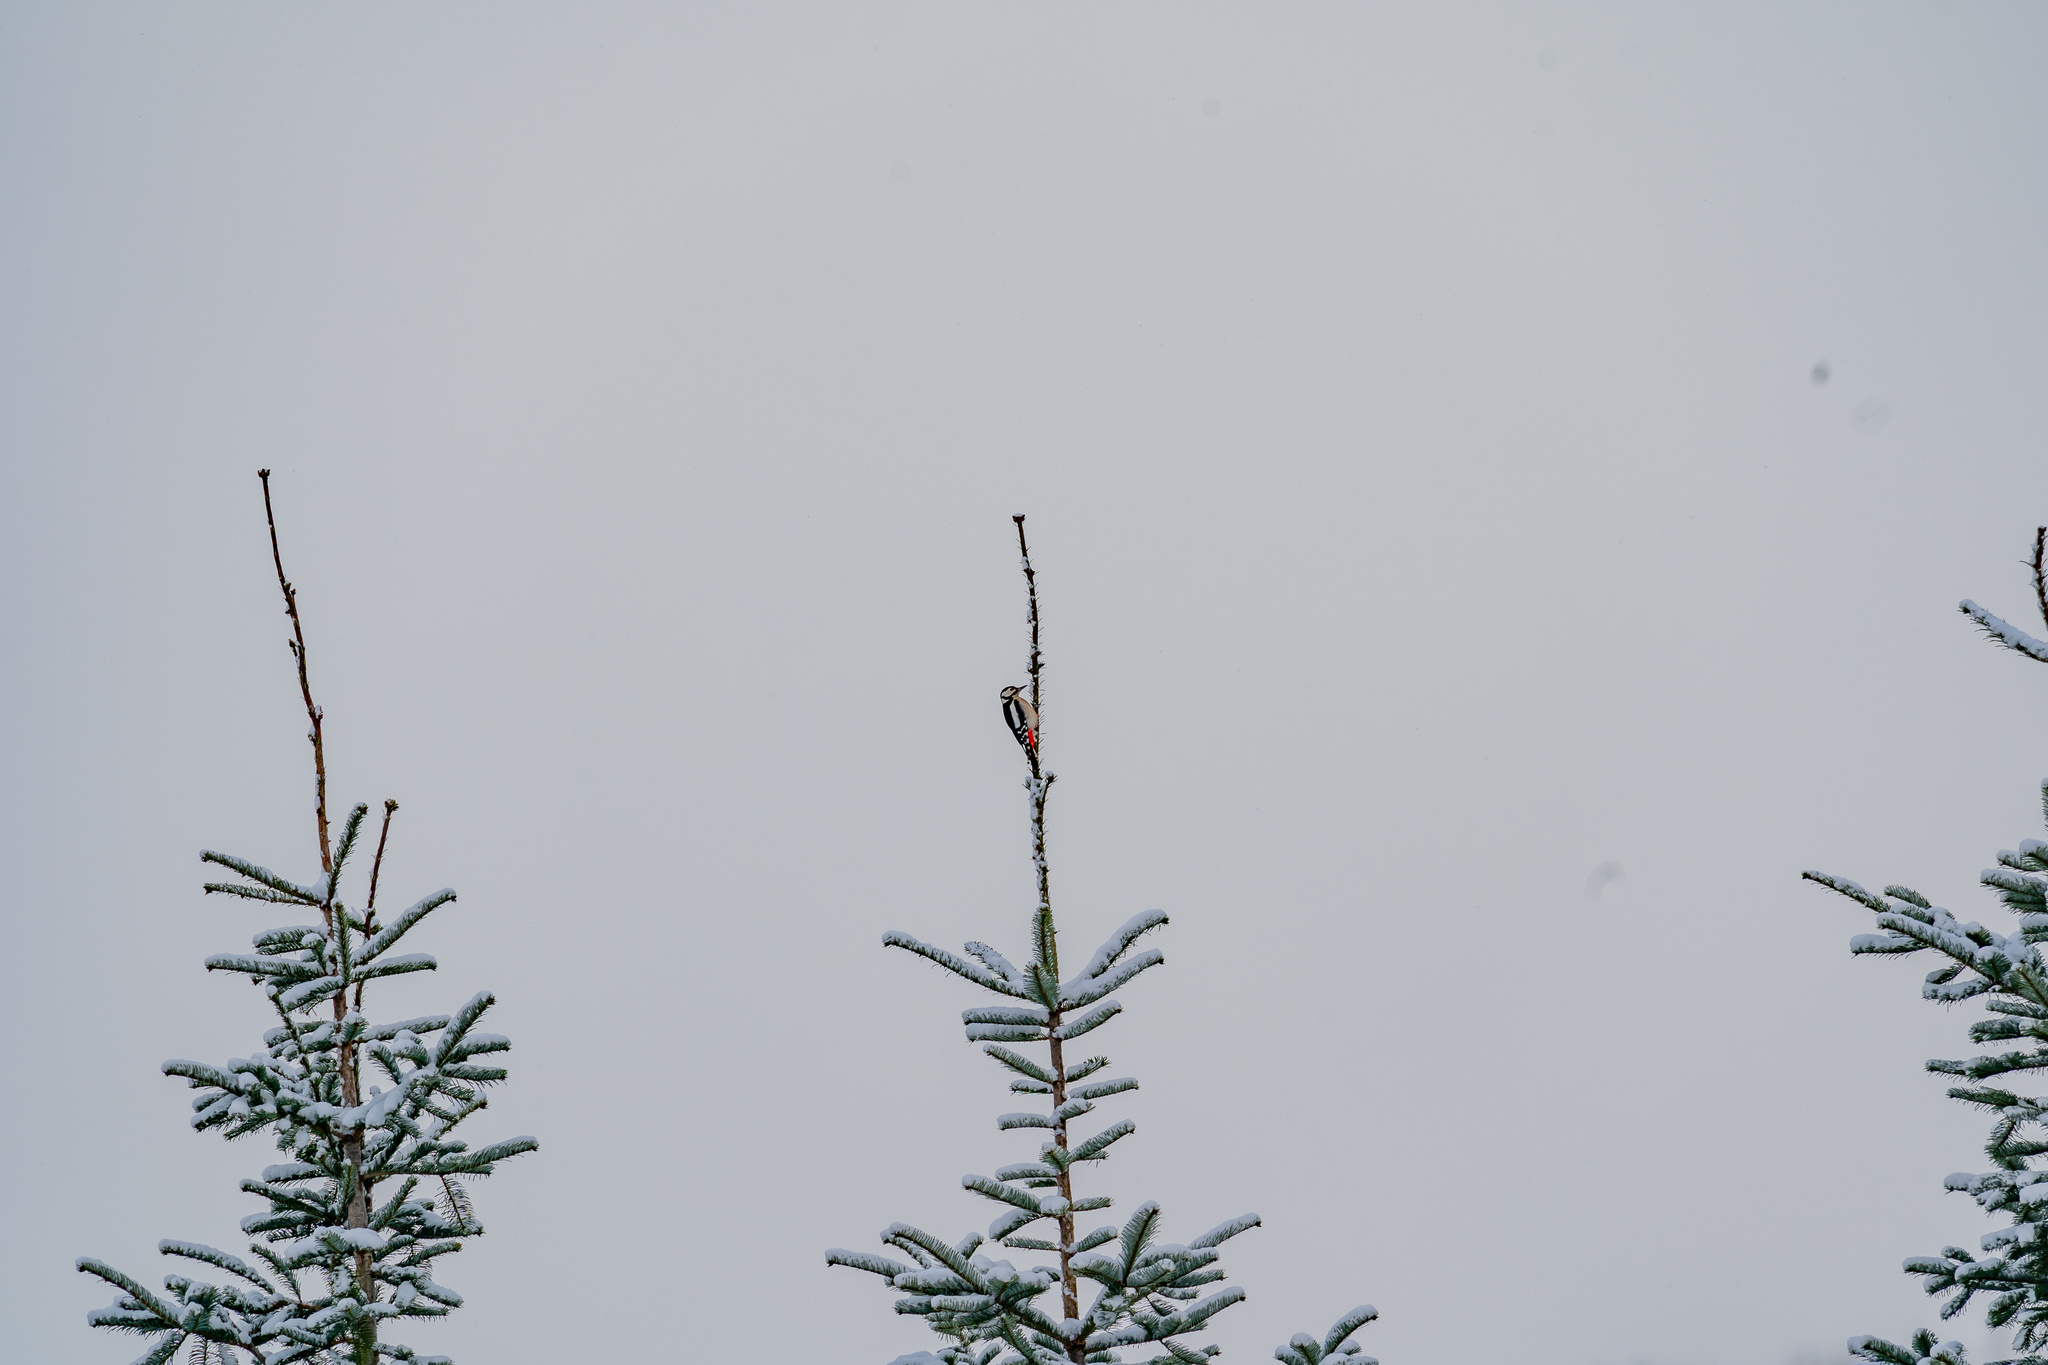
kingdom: Animalia
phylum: Chordata
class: Aves
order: Piciformes
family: Picidae
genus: Dendrocopos
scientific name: Dendrocopos major
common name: Great spotted woodpecker
